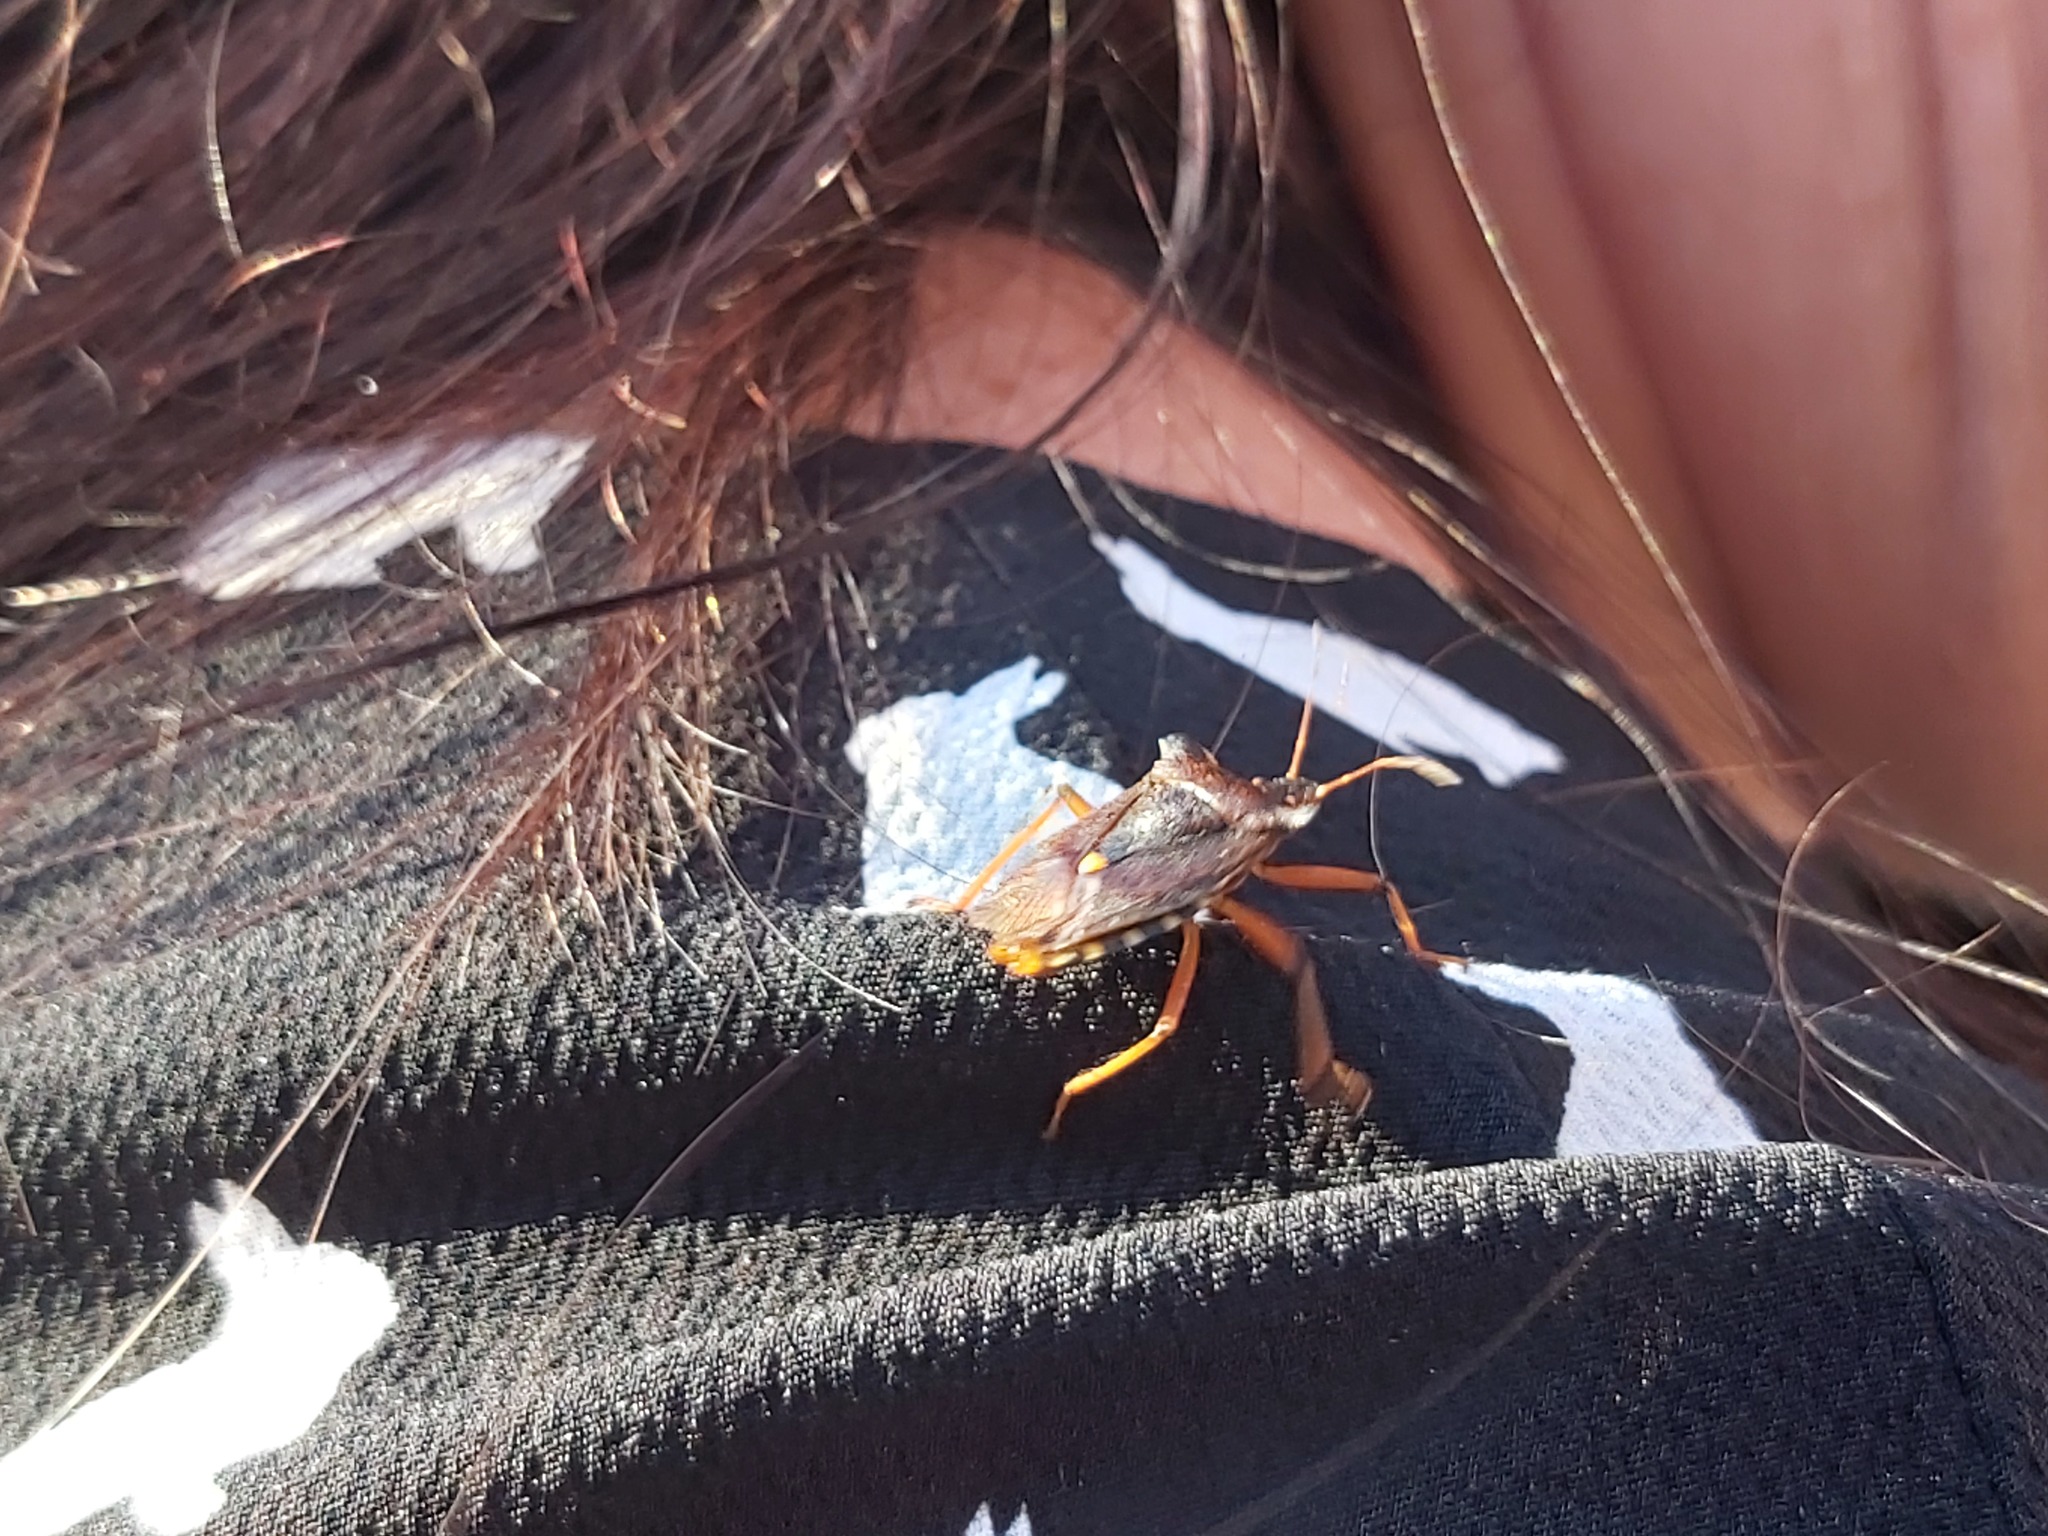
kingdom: Animalia
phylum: Arthropoda
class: Insecta
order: Hemiptera
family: Pentatomidae
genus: Pentatoma
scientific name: Pentatoma rufipes
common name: Forest bug
